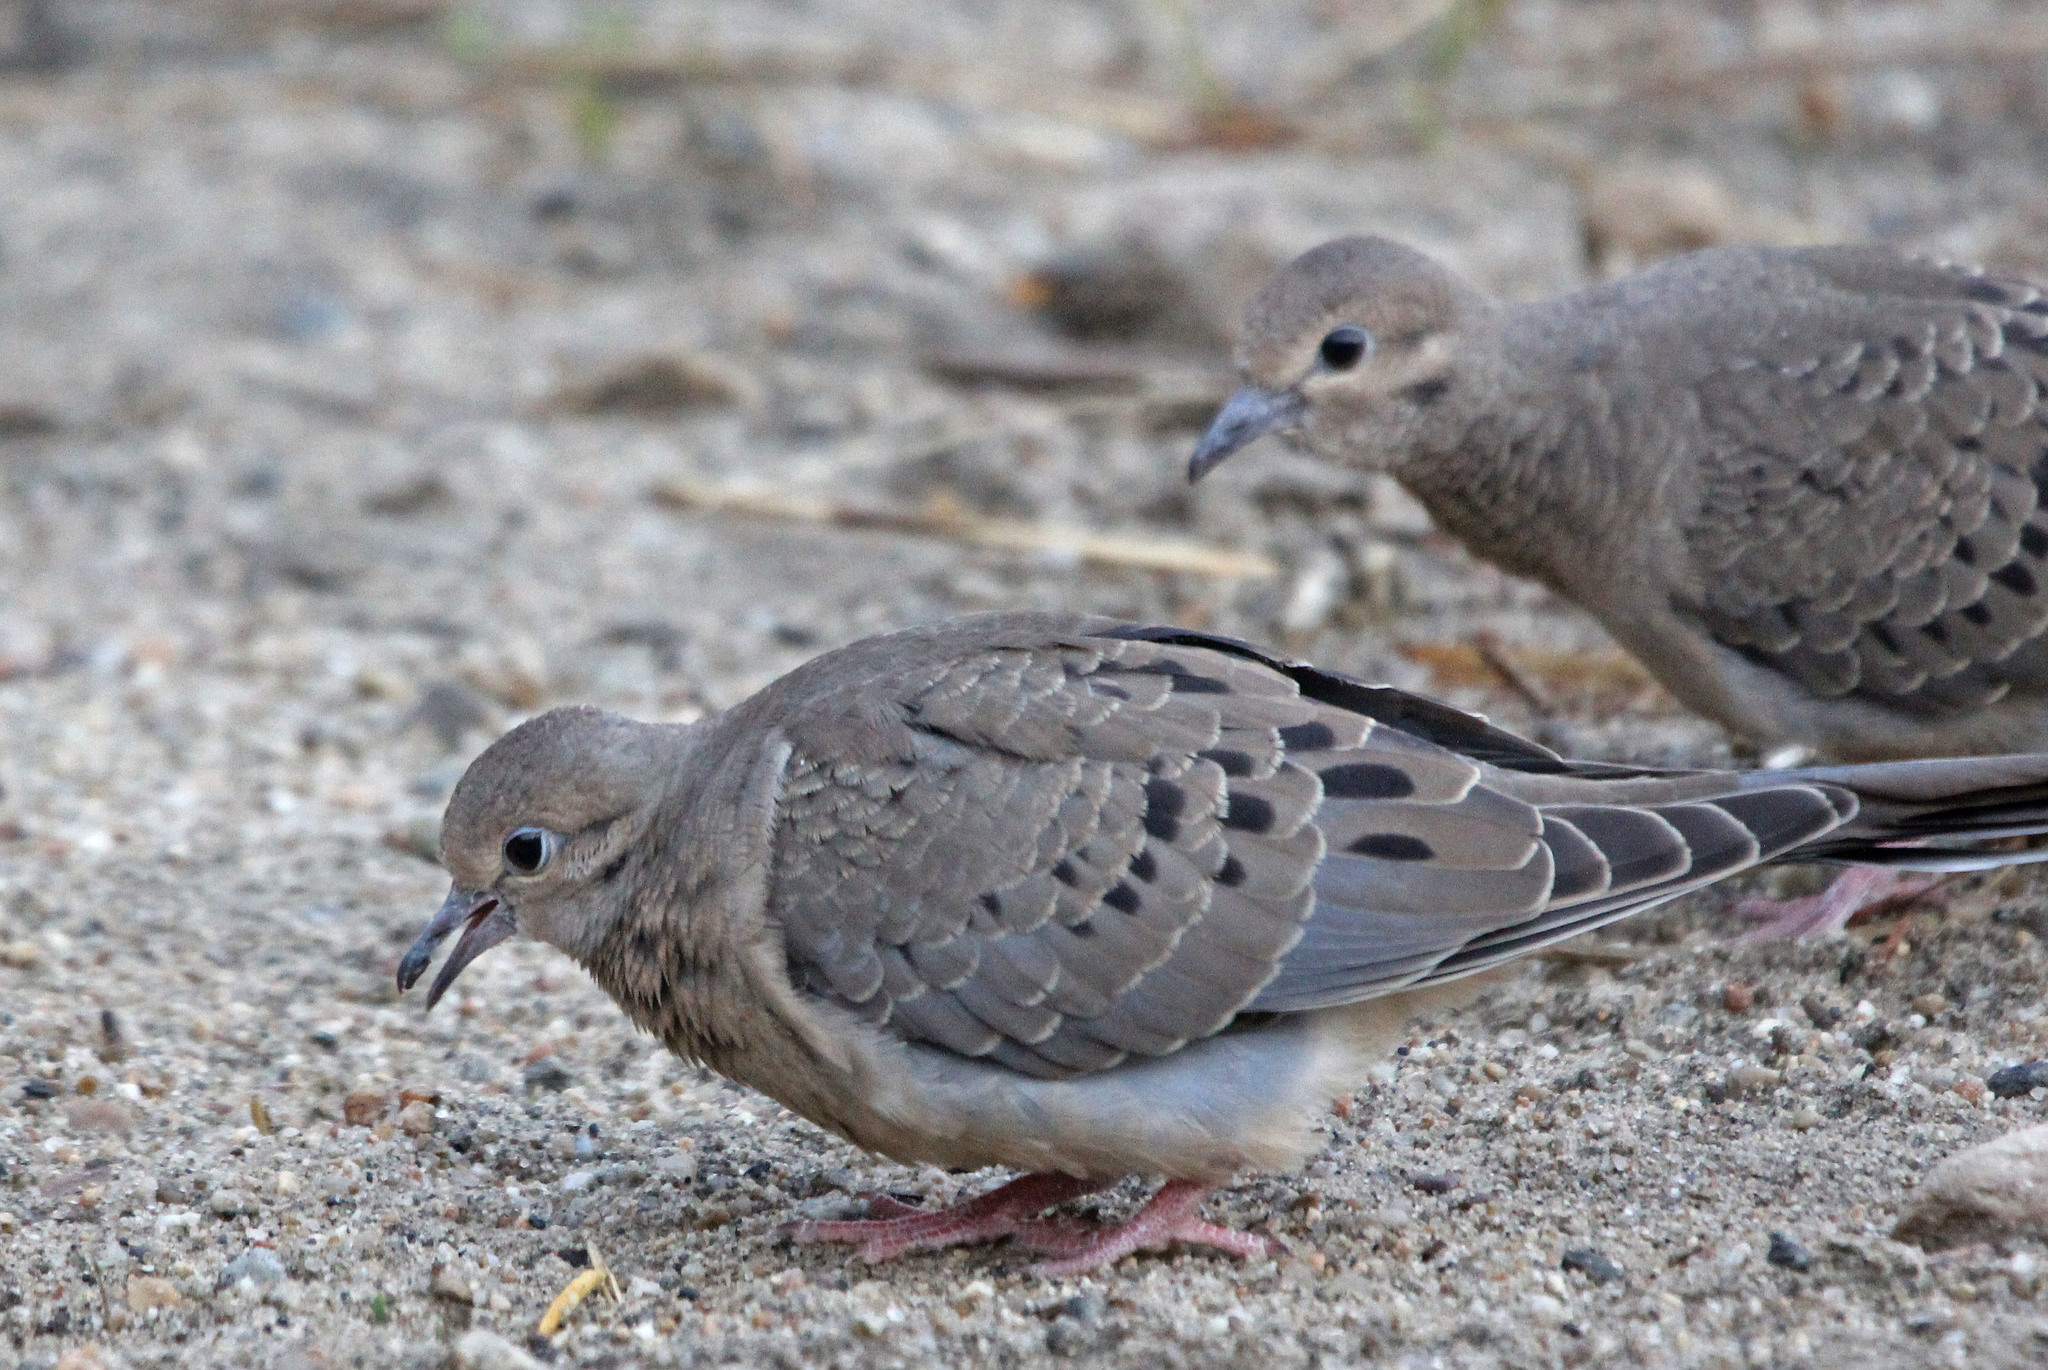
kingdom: Animalia
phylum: Chordata
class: Aves
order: Columbiformes
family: Columbidae
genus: Zenaida
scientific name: Zenaida macroura
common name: Mourning dove
